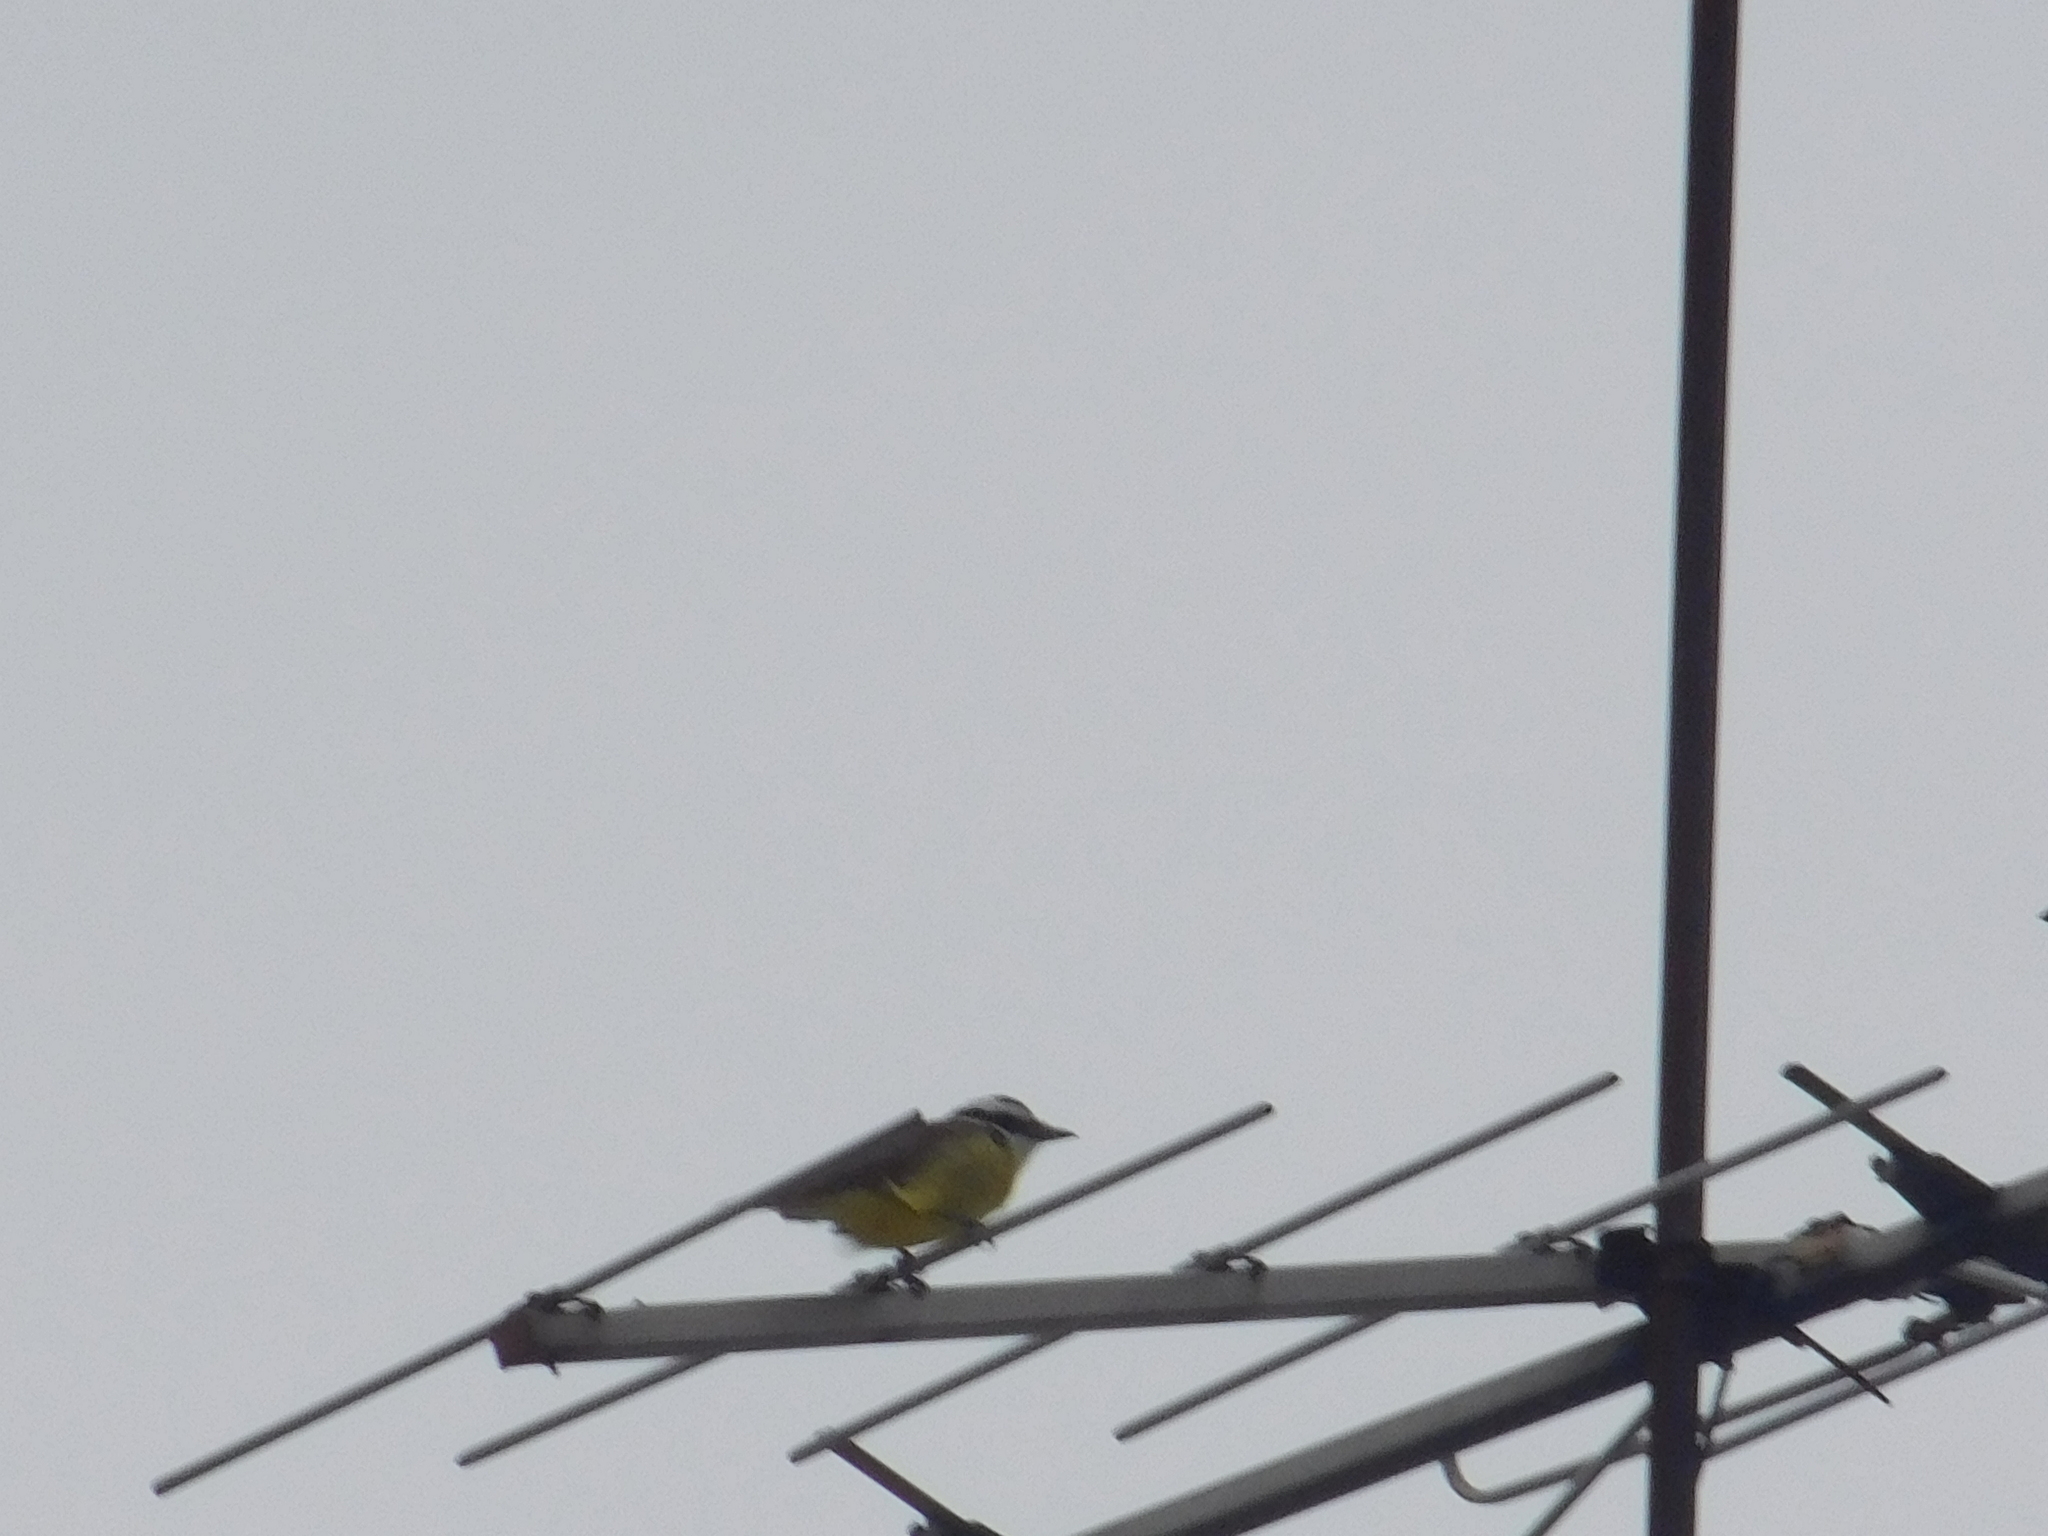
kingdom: Animalia
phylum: Chordata
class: Aves
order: Passeriformes
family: Tyrannidae
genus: Pitangus
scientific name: Pitangus sulphuratus
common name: Great kiskadee
